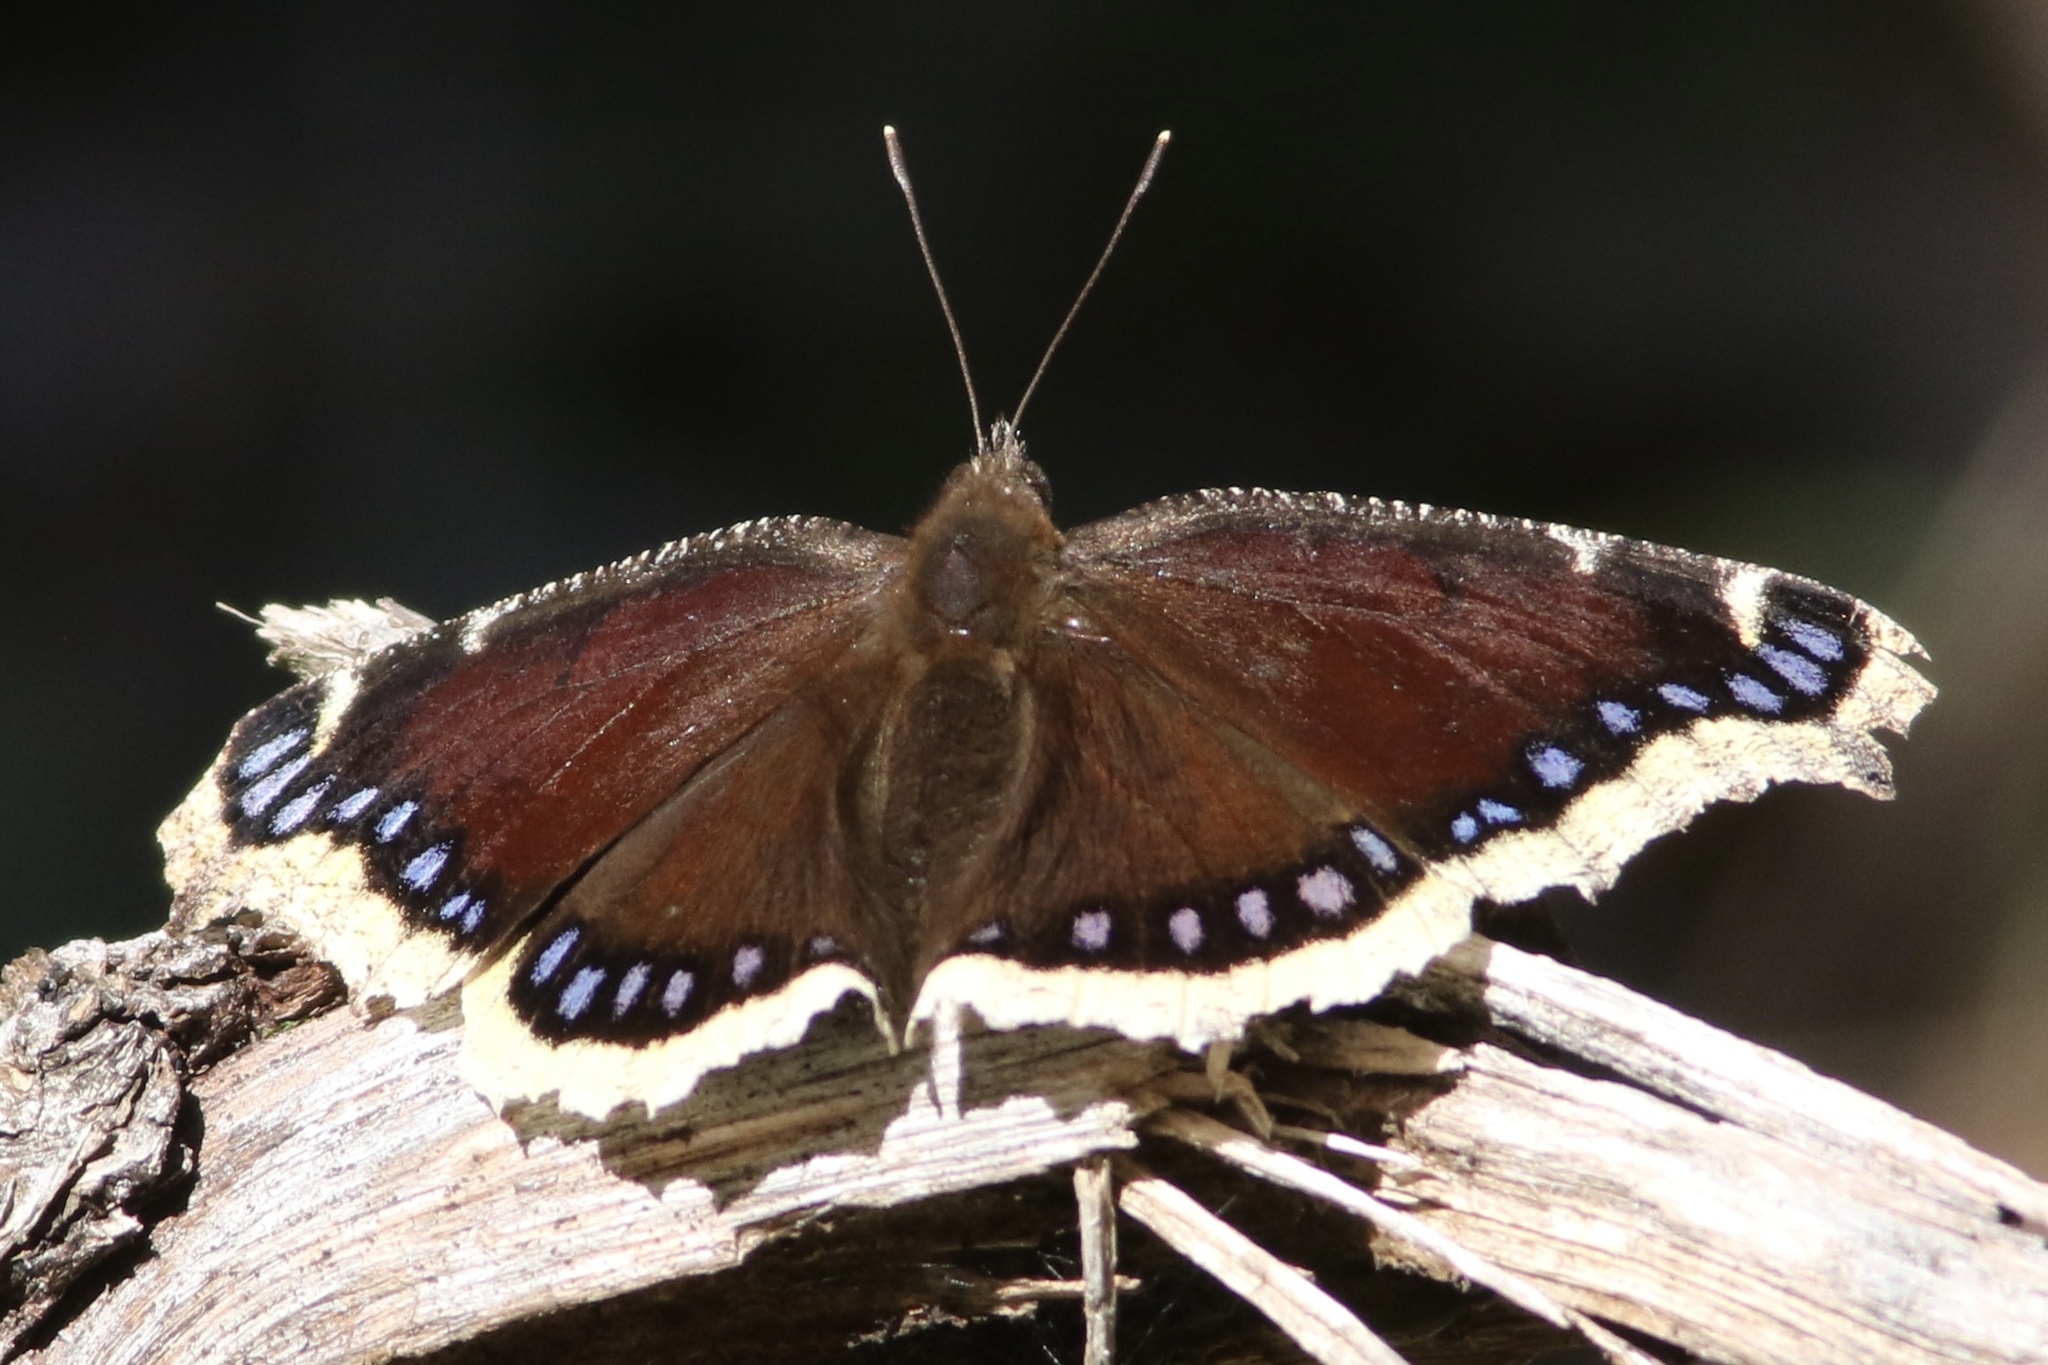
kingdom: Animalia
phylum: Arthropoda
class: Insecta
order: Lepidoptera
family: Nymphalidae
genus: Nymphalis
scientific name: Nymphalis antiopa
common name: Camberwell beauty
